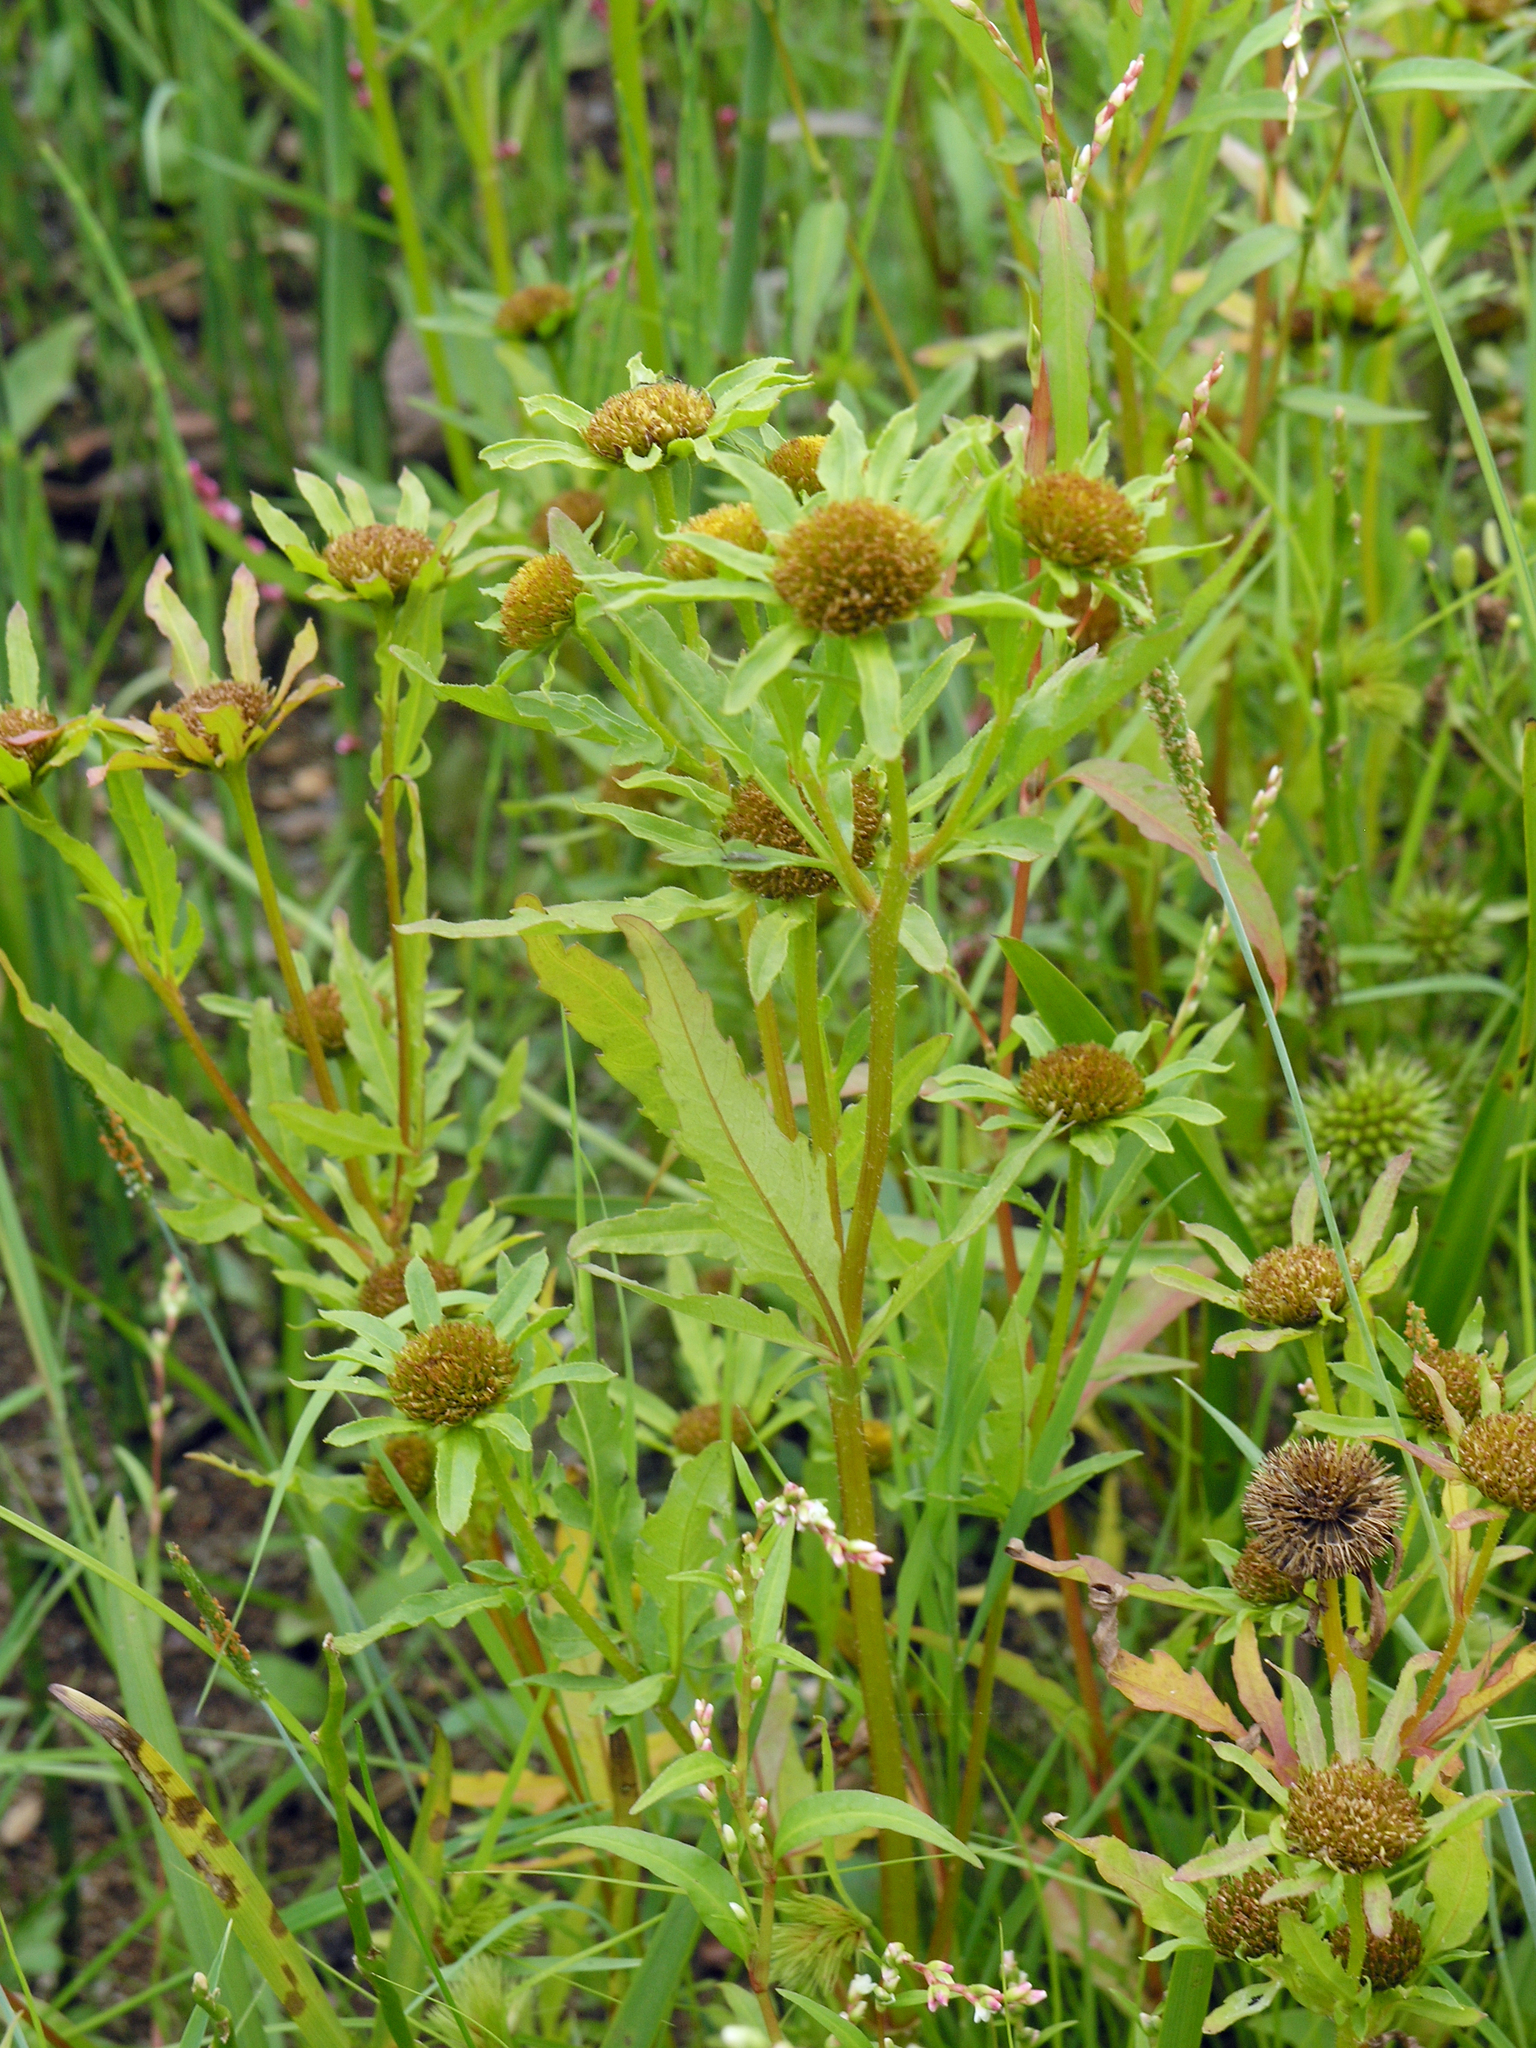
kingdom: Plantae
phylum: Tracheophyta
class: Magnoliopsida
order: Asterales
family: Asteraceae
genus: Bidens
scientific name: Bidens radiata
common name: Radiating bur-marigold
